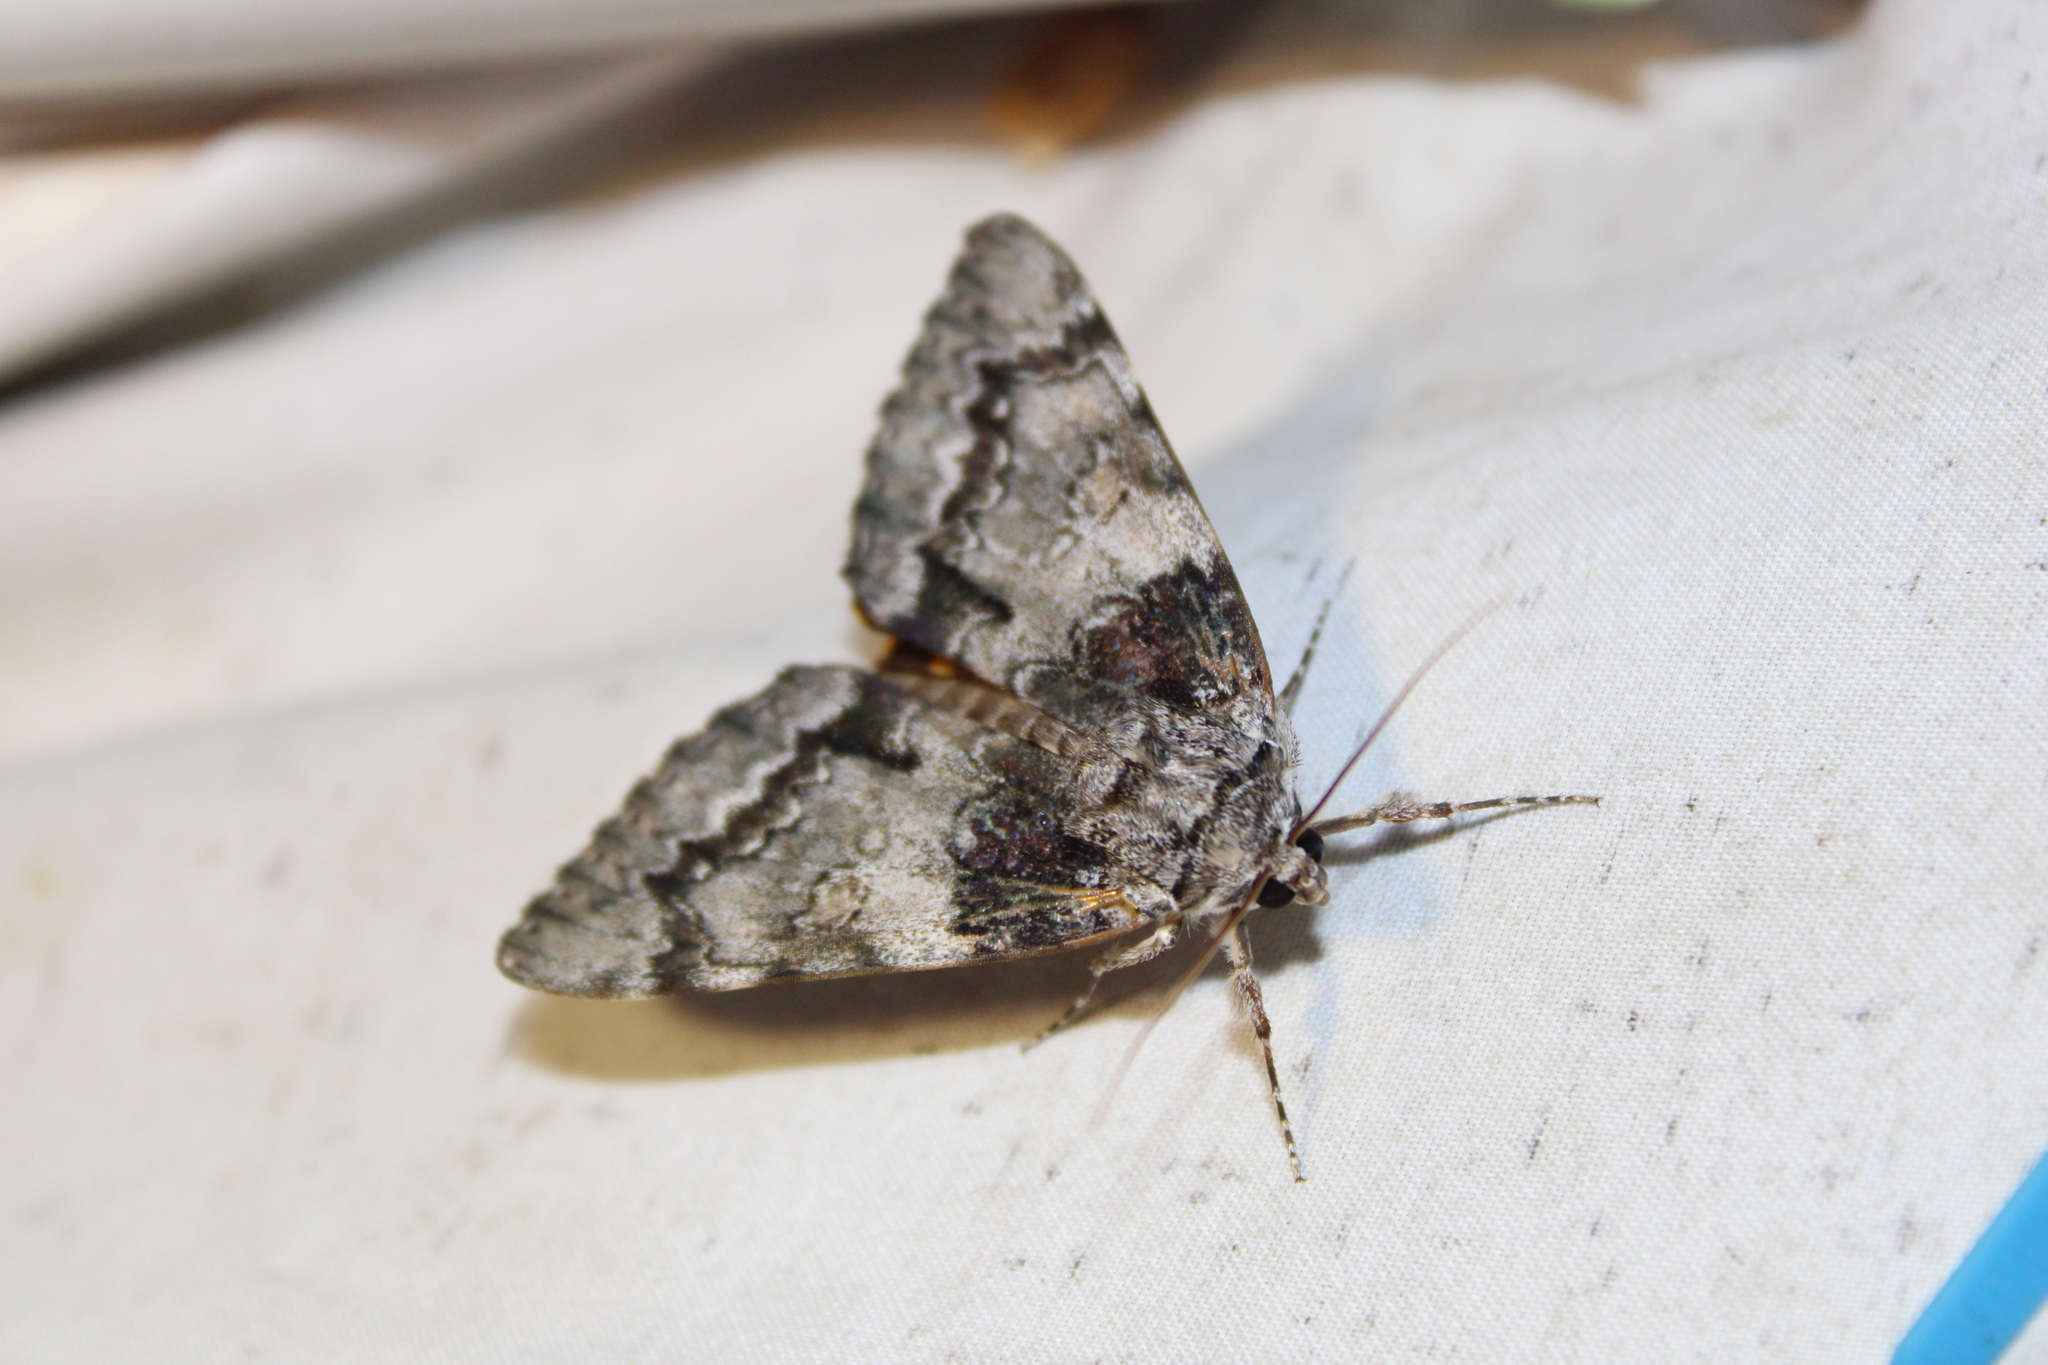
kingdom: Animalia
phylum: Arthropoda
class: Insecta
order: Lepidoptera
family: Erebidae
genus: Catocala
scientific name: Catocala palaeogama
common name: Oldwife underwing
